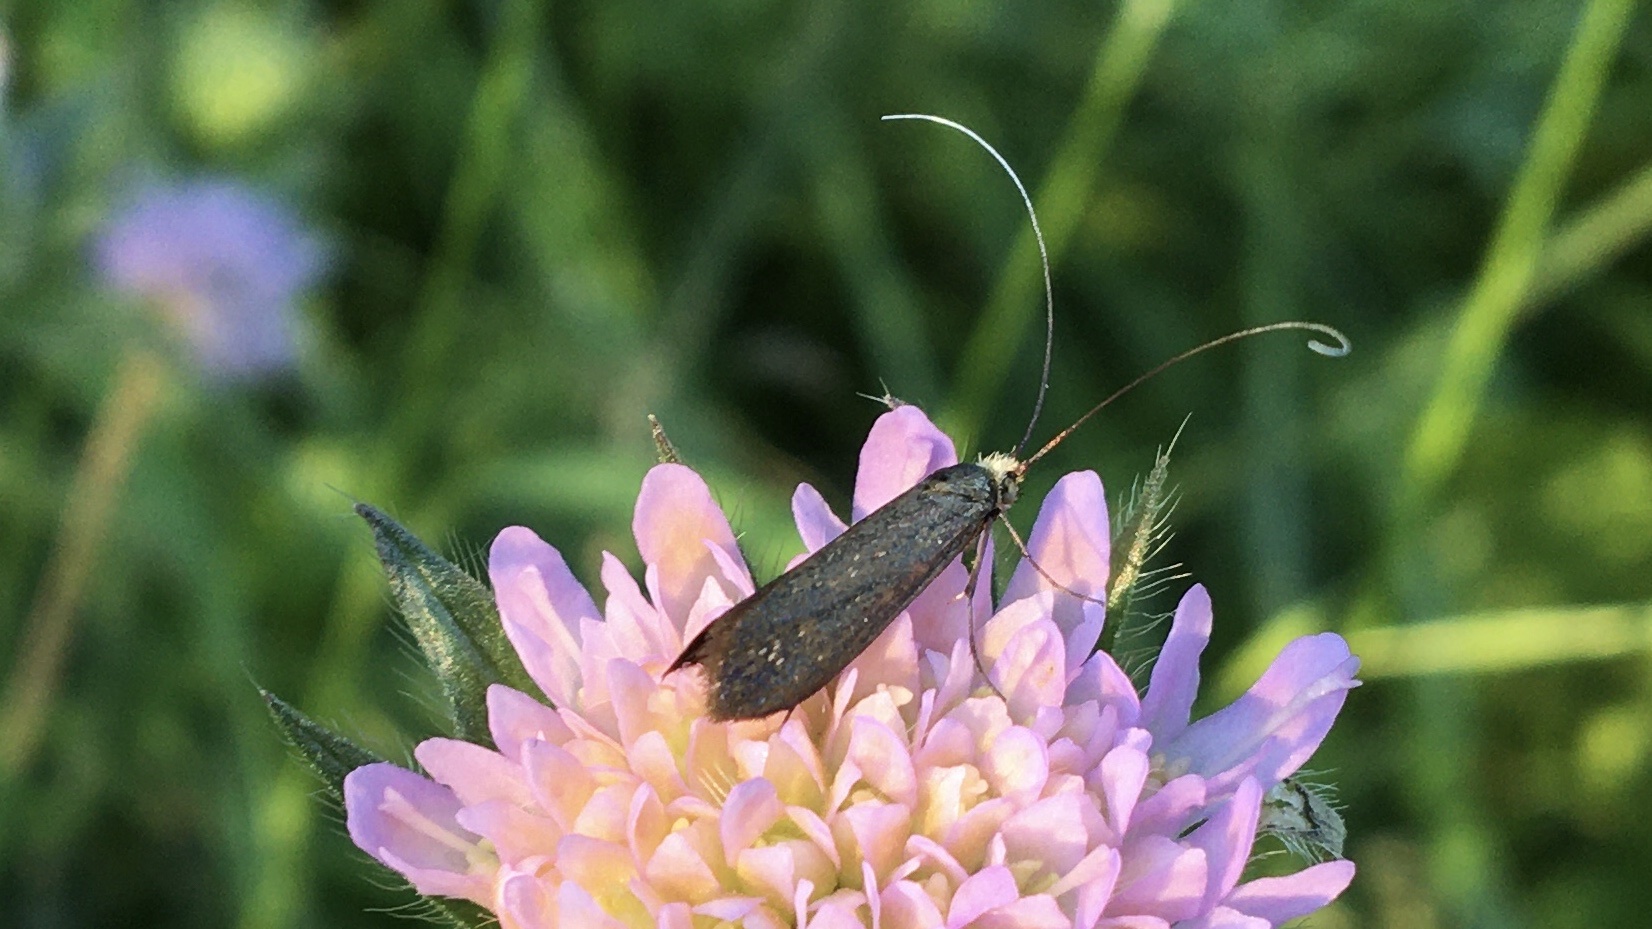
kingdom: Animalia
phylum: Arthropoda
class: Insecta
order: Lepidoptera
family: Adelidae
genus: Nemophora
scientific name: Nemophora metallica
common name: Brassy long-horn
